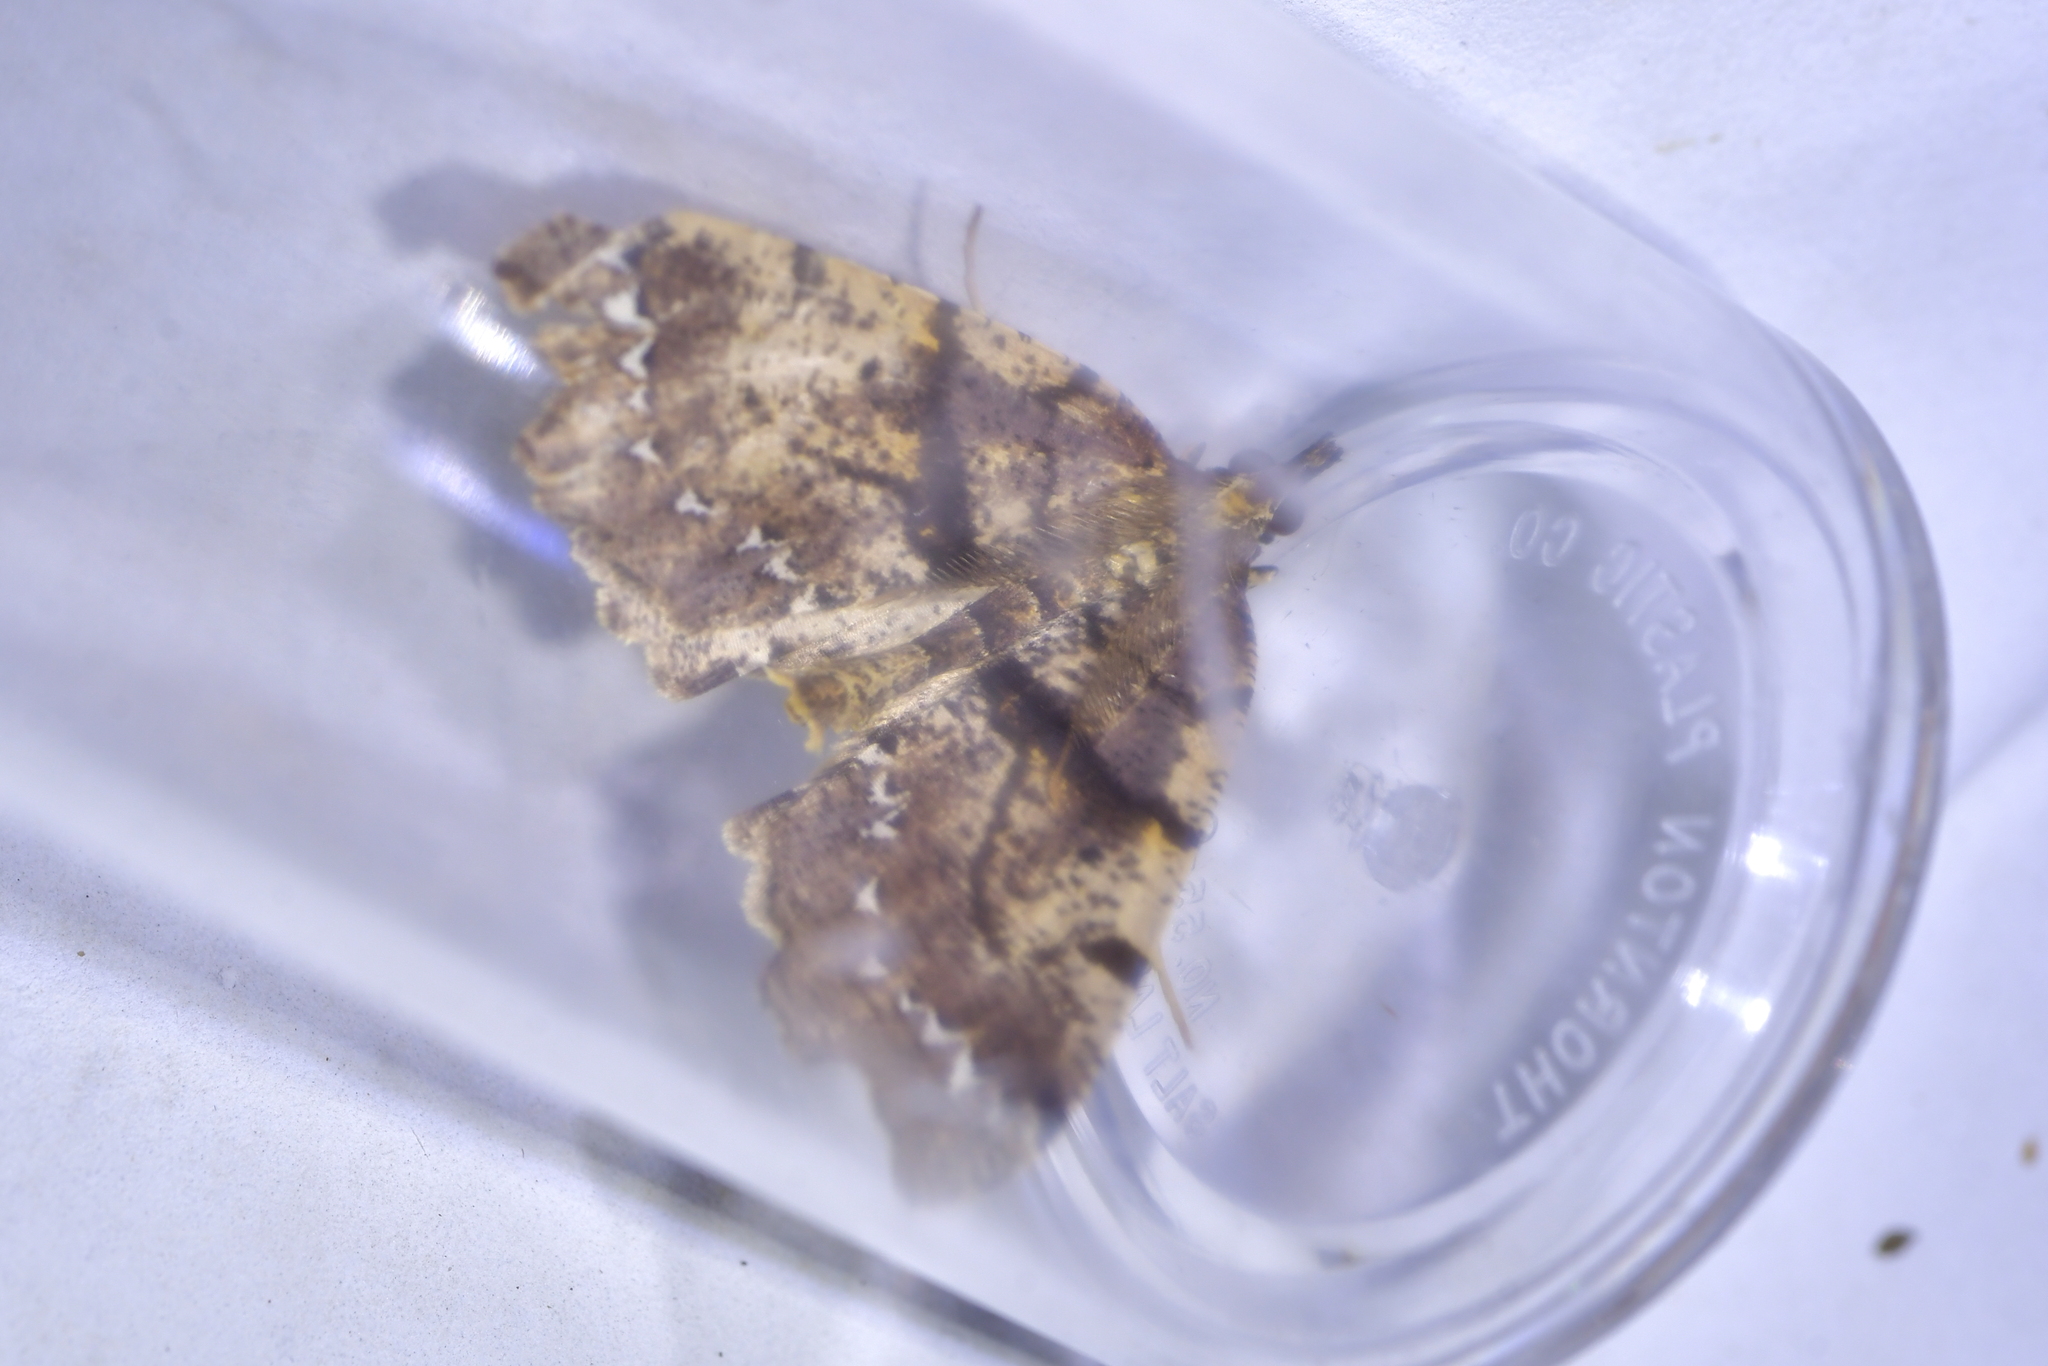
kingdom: Animalia
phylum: Arthropoda
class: Insecta
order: Lepidoptera
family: Geometridae
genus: Chalastra
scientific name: Chalastra pellurgata
